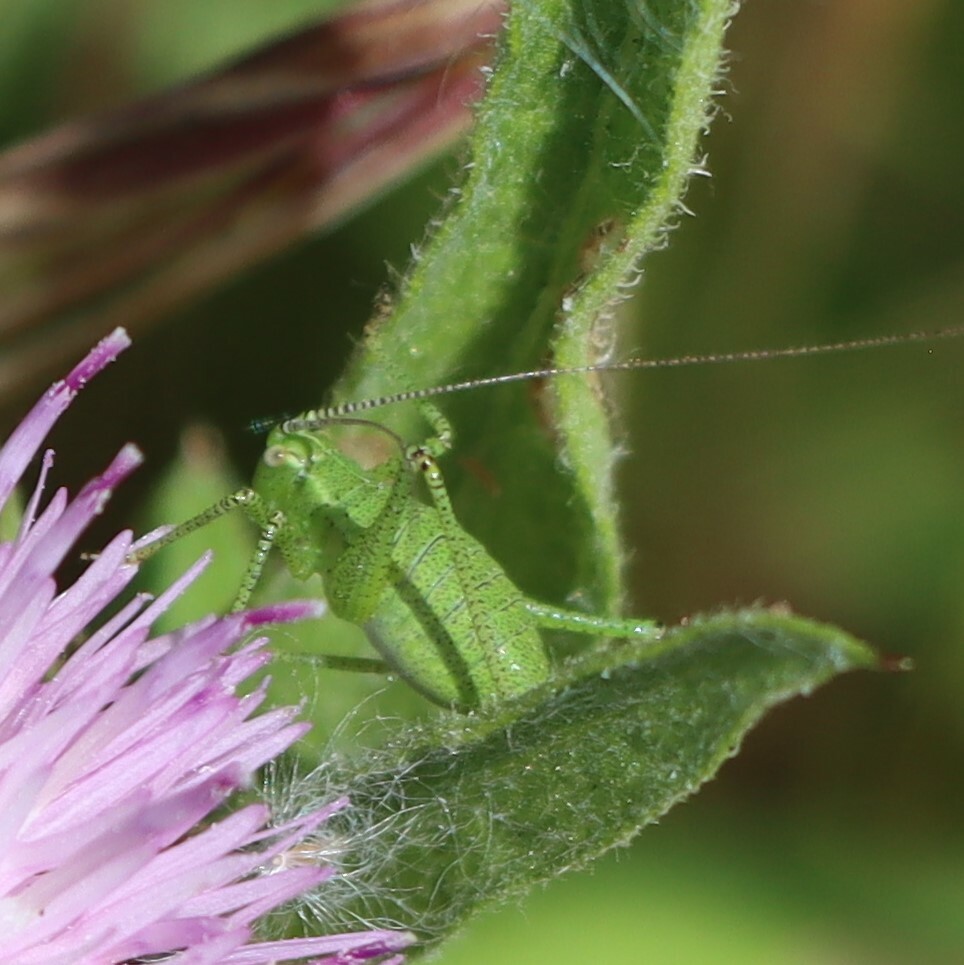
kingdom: Animalia
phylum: Arthropoda
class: Insecta
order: Orthoptera
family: Tettigoniidae
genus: Leptophyes
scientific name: Leptophyes punctatissima
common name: Speckled bush-cricket
